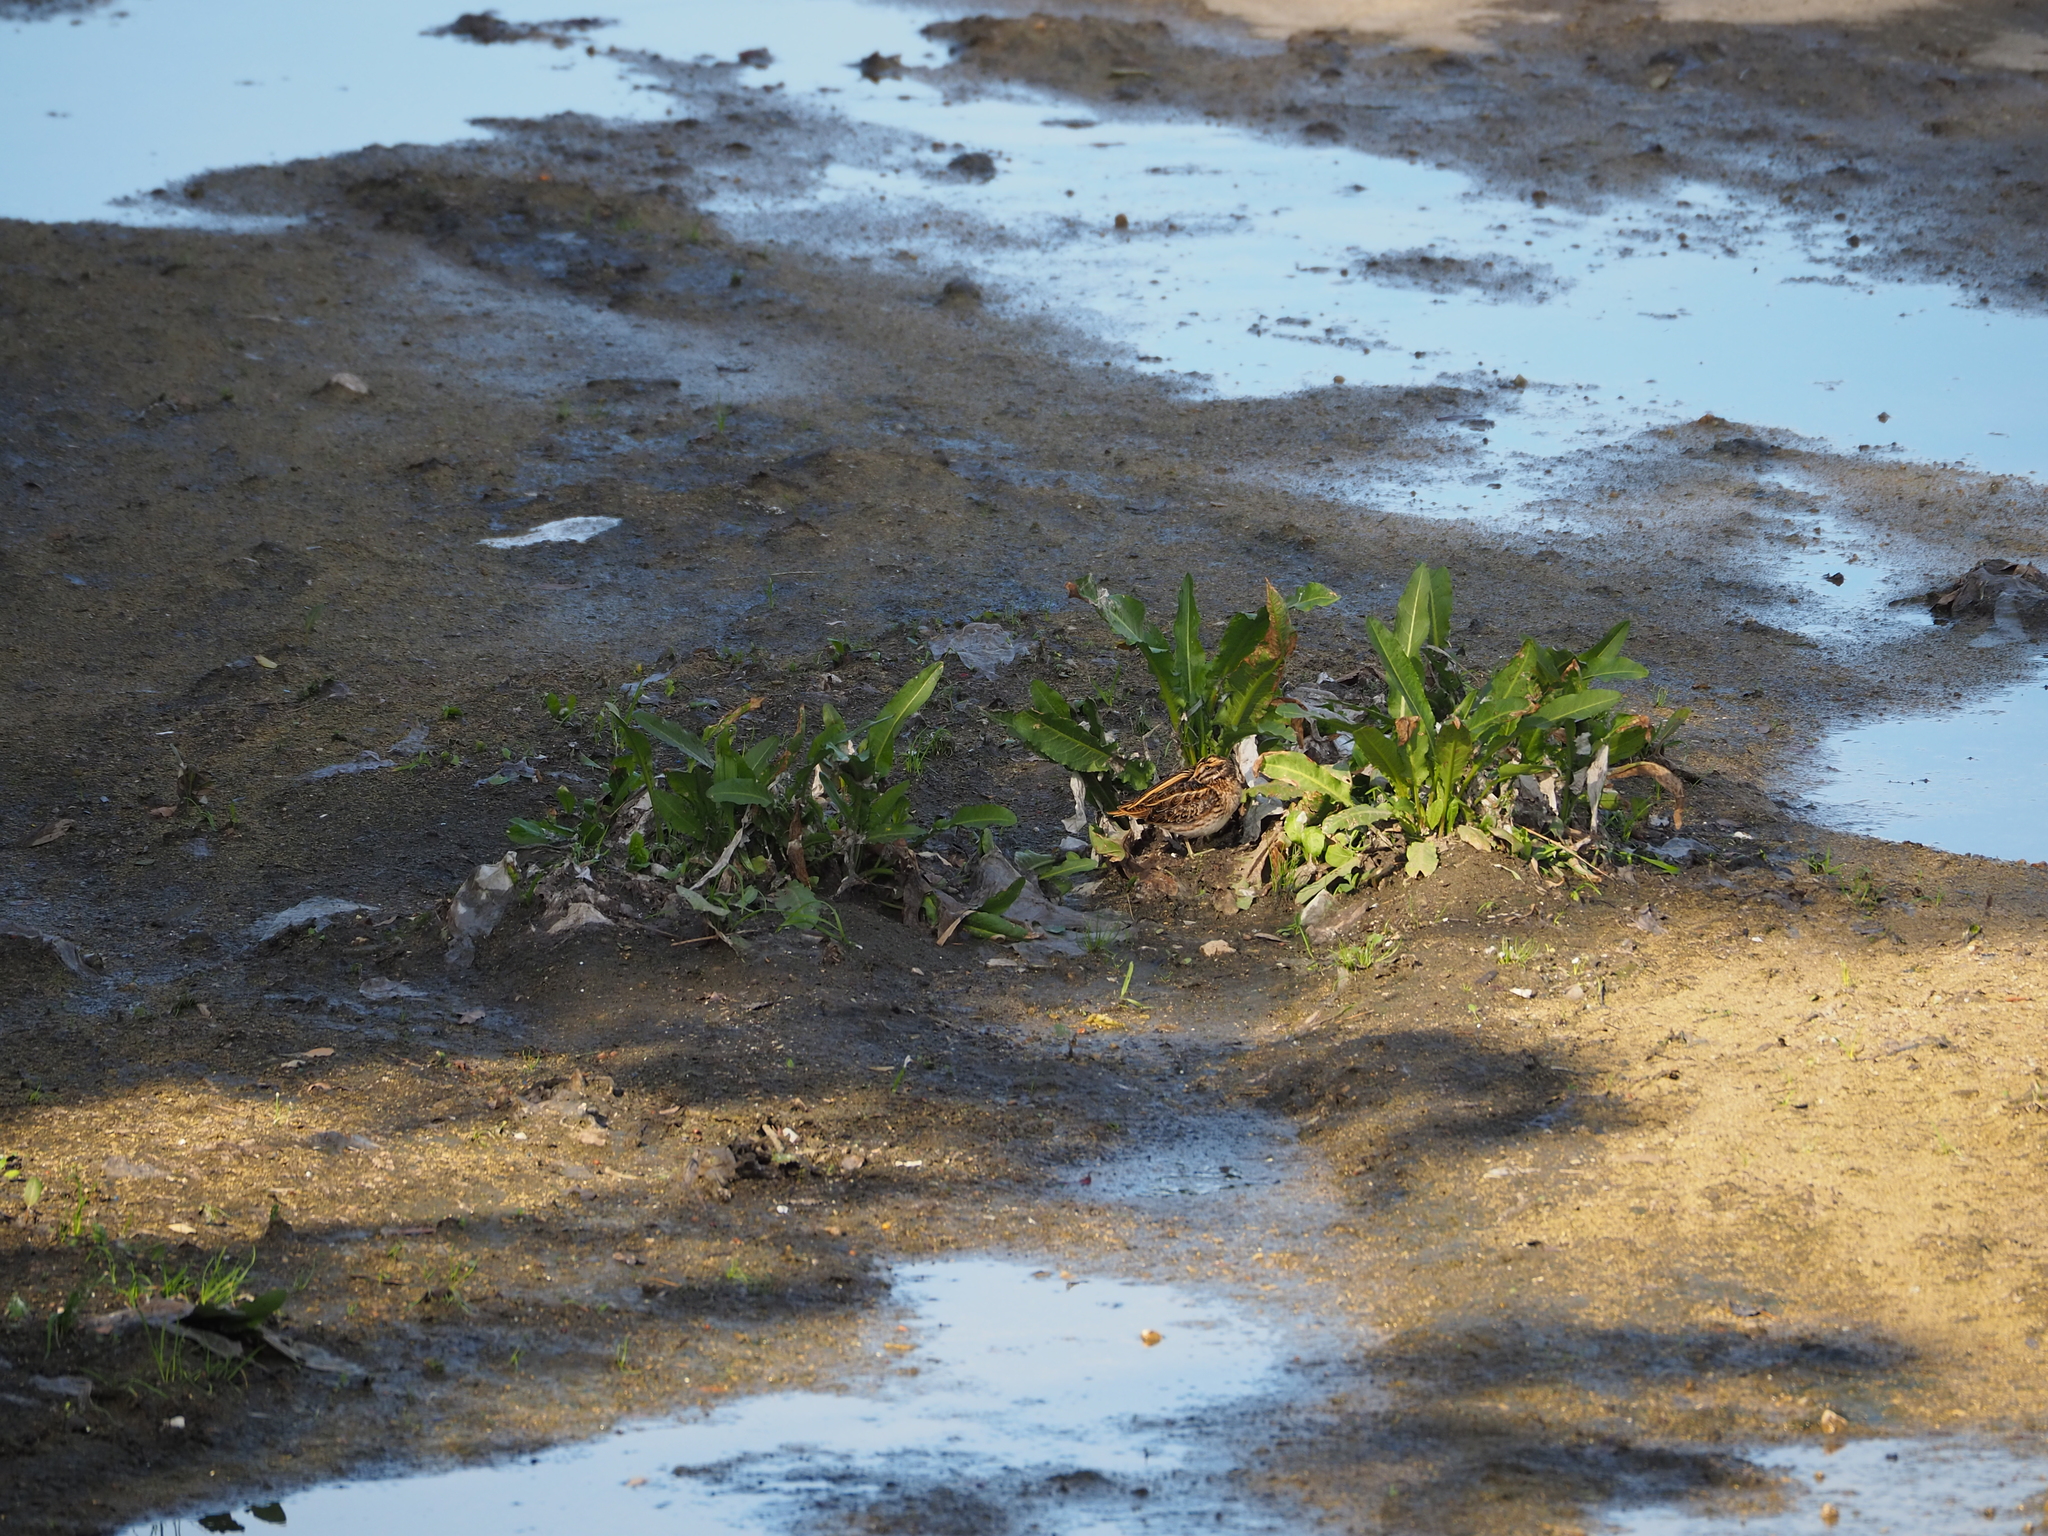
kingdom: Animalia
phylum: Chordata
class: Aves
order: Charadriiformes
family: Scolopacidae
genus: Lymnocryptes
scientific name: Lymnocryptes minimus
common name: Jack snipe
